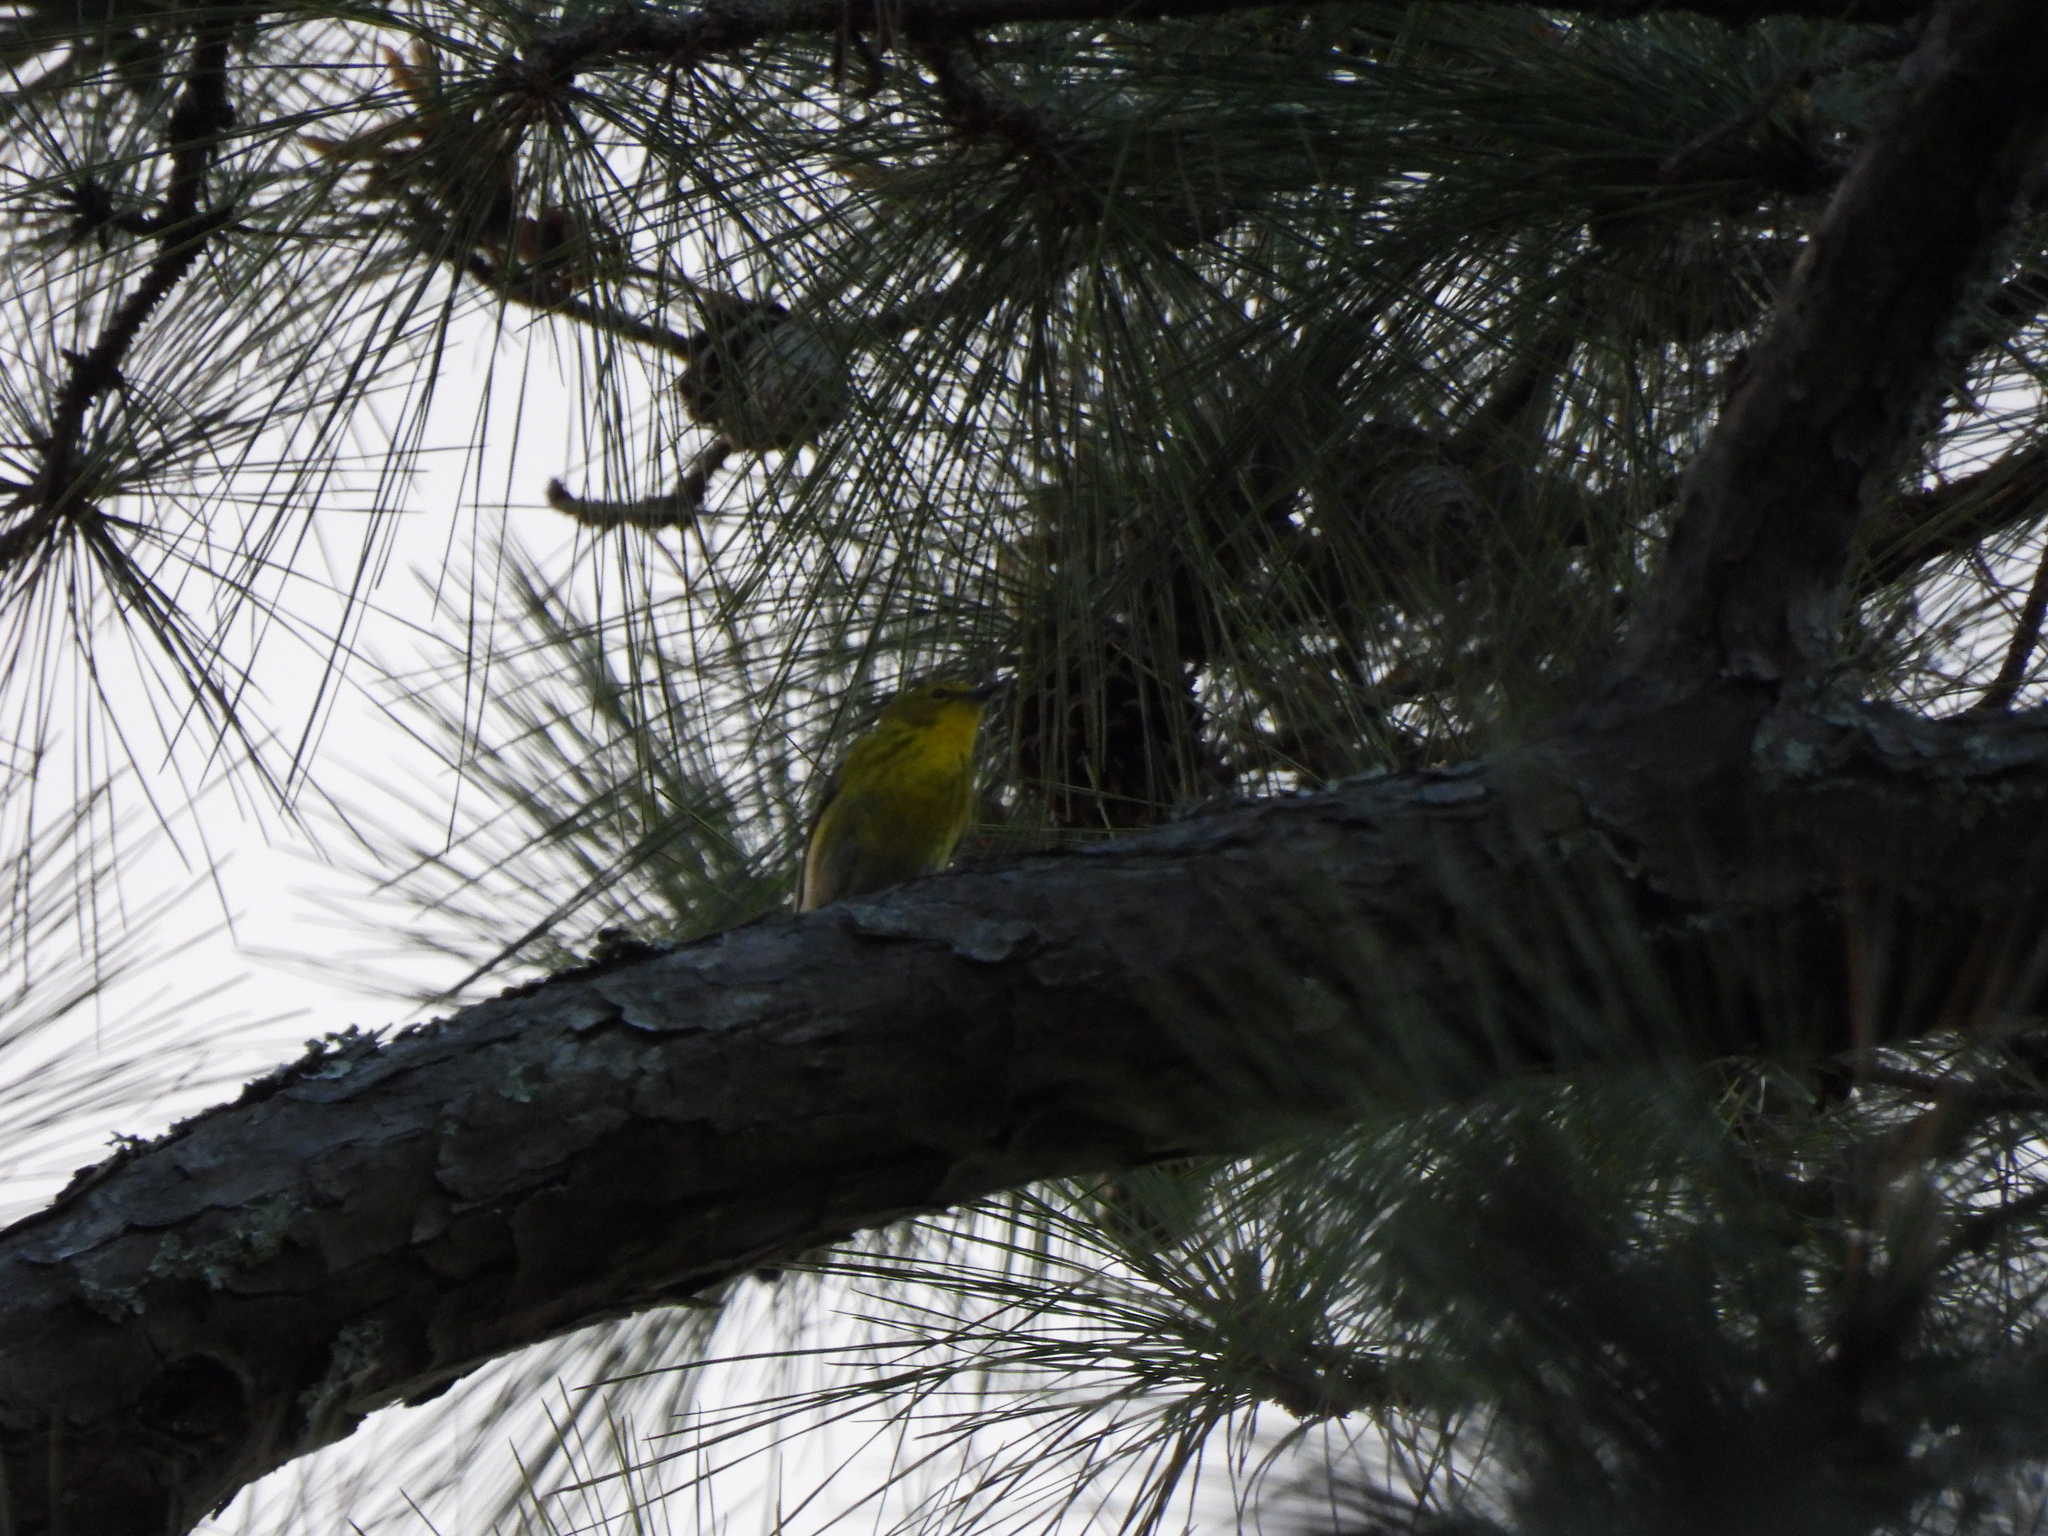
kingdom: Animalia
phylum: Chordata
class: Aves
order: Passeriformes
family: Parulidae
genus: Setophaga
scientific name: Setophaga pinus
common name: Pine warbler
